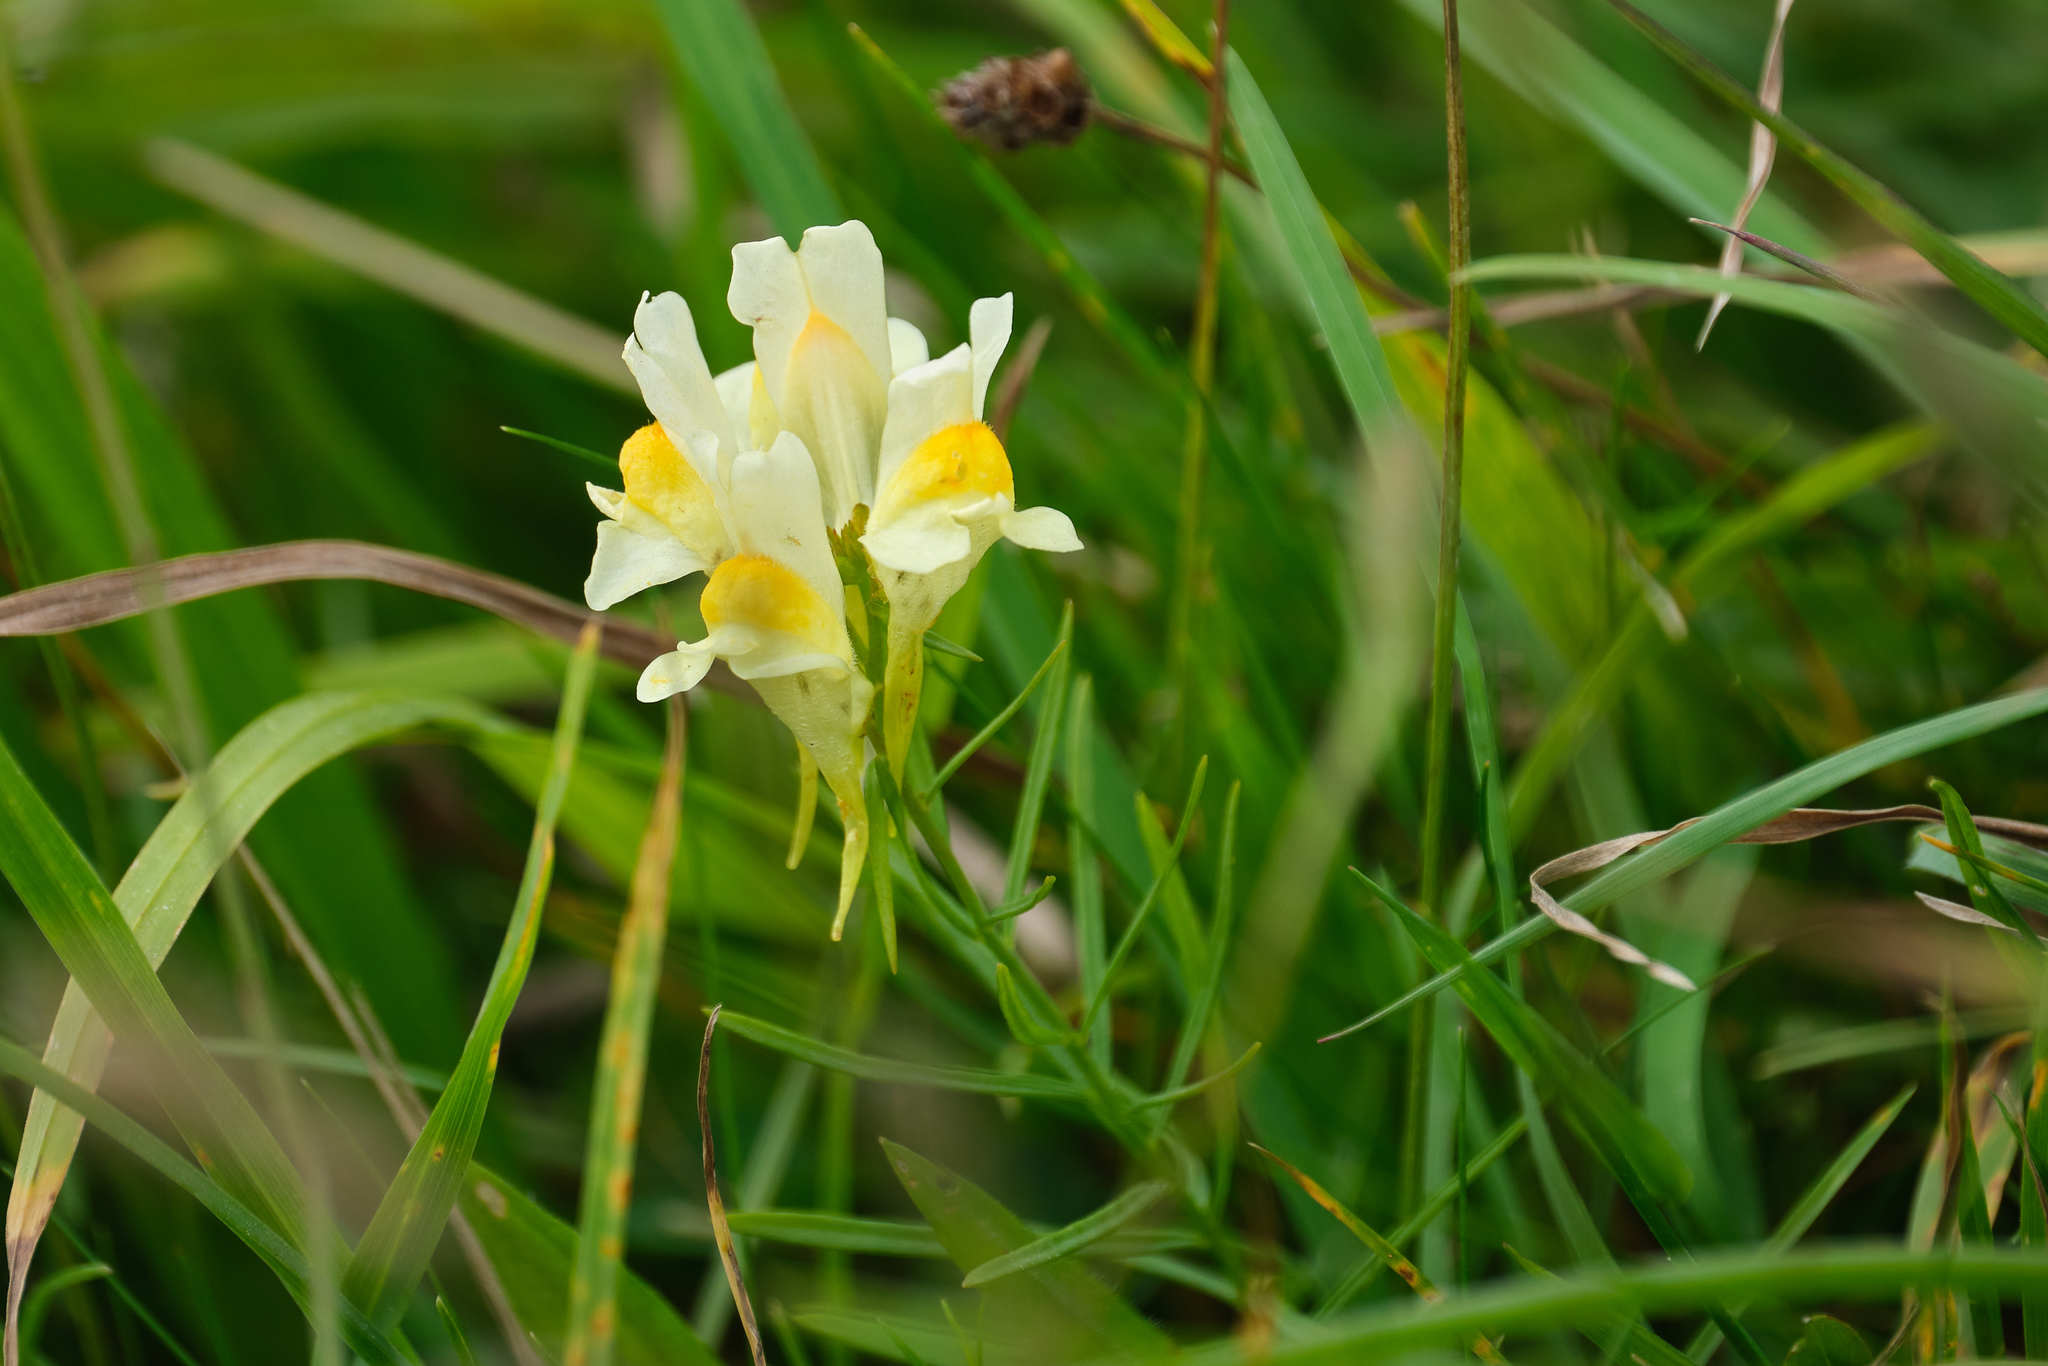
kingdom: Plantae
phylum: Tracheophyta
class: Magnoliopsida
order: Lamiales
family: Plantaginaceae
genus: Linaria
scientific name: Linaria vulgaris
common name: Butter and eggs
